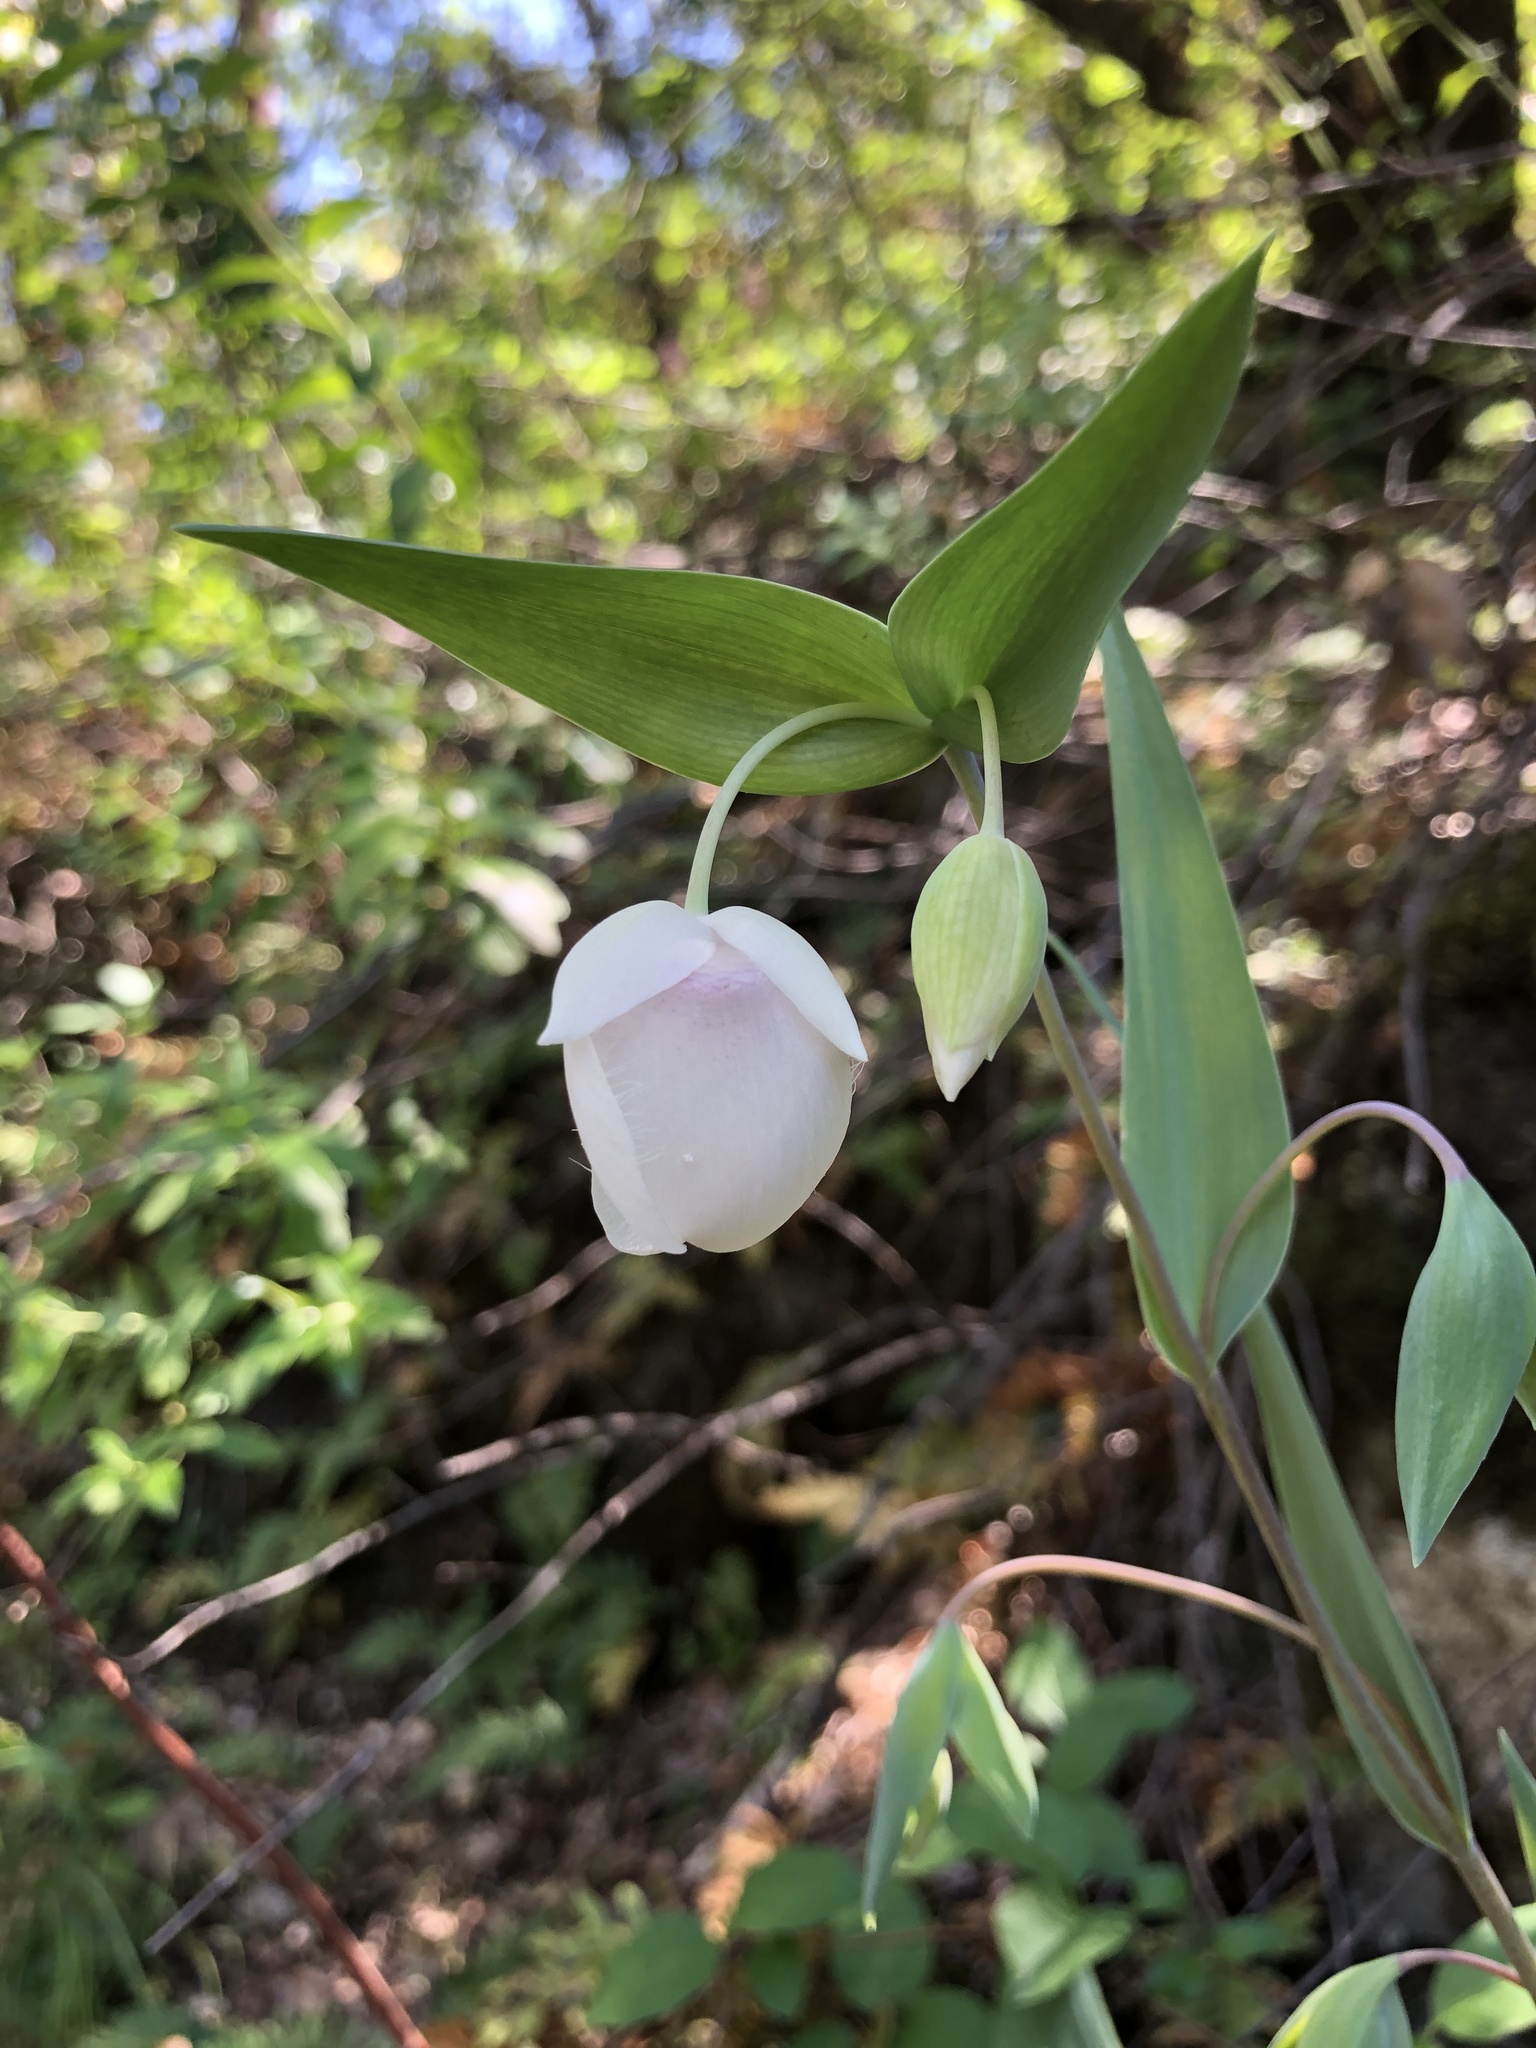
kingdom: Plantae
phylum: Tracheophyta
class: Liliopsida
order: Liliales
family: Liliaceae
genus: Calochortus
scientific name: Calochortus albus
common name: Fairy-lantern
